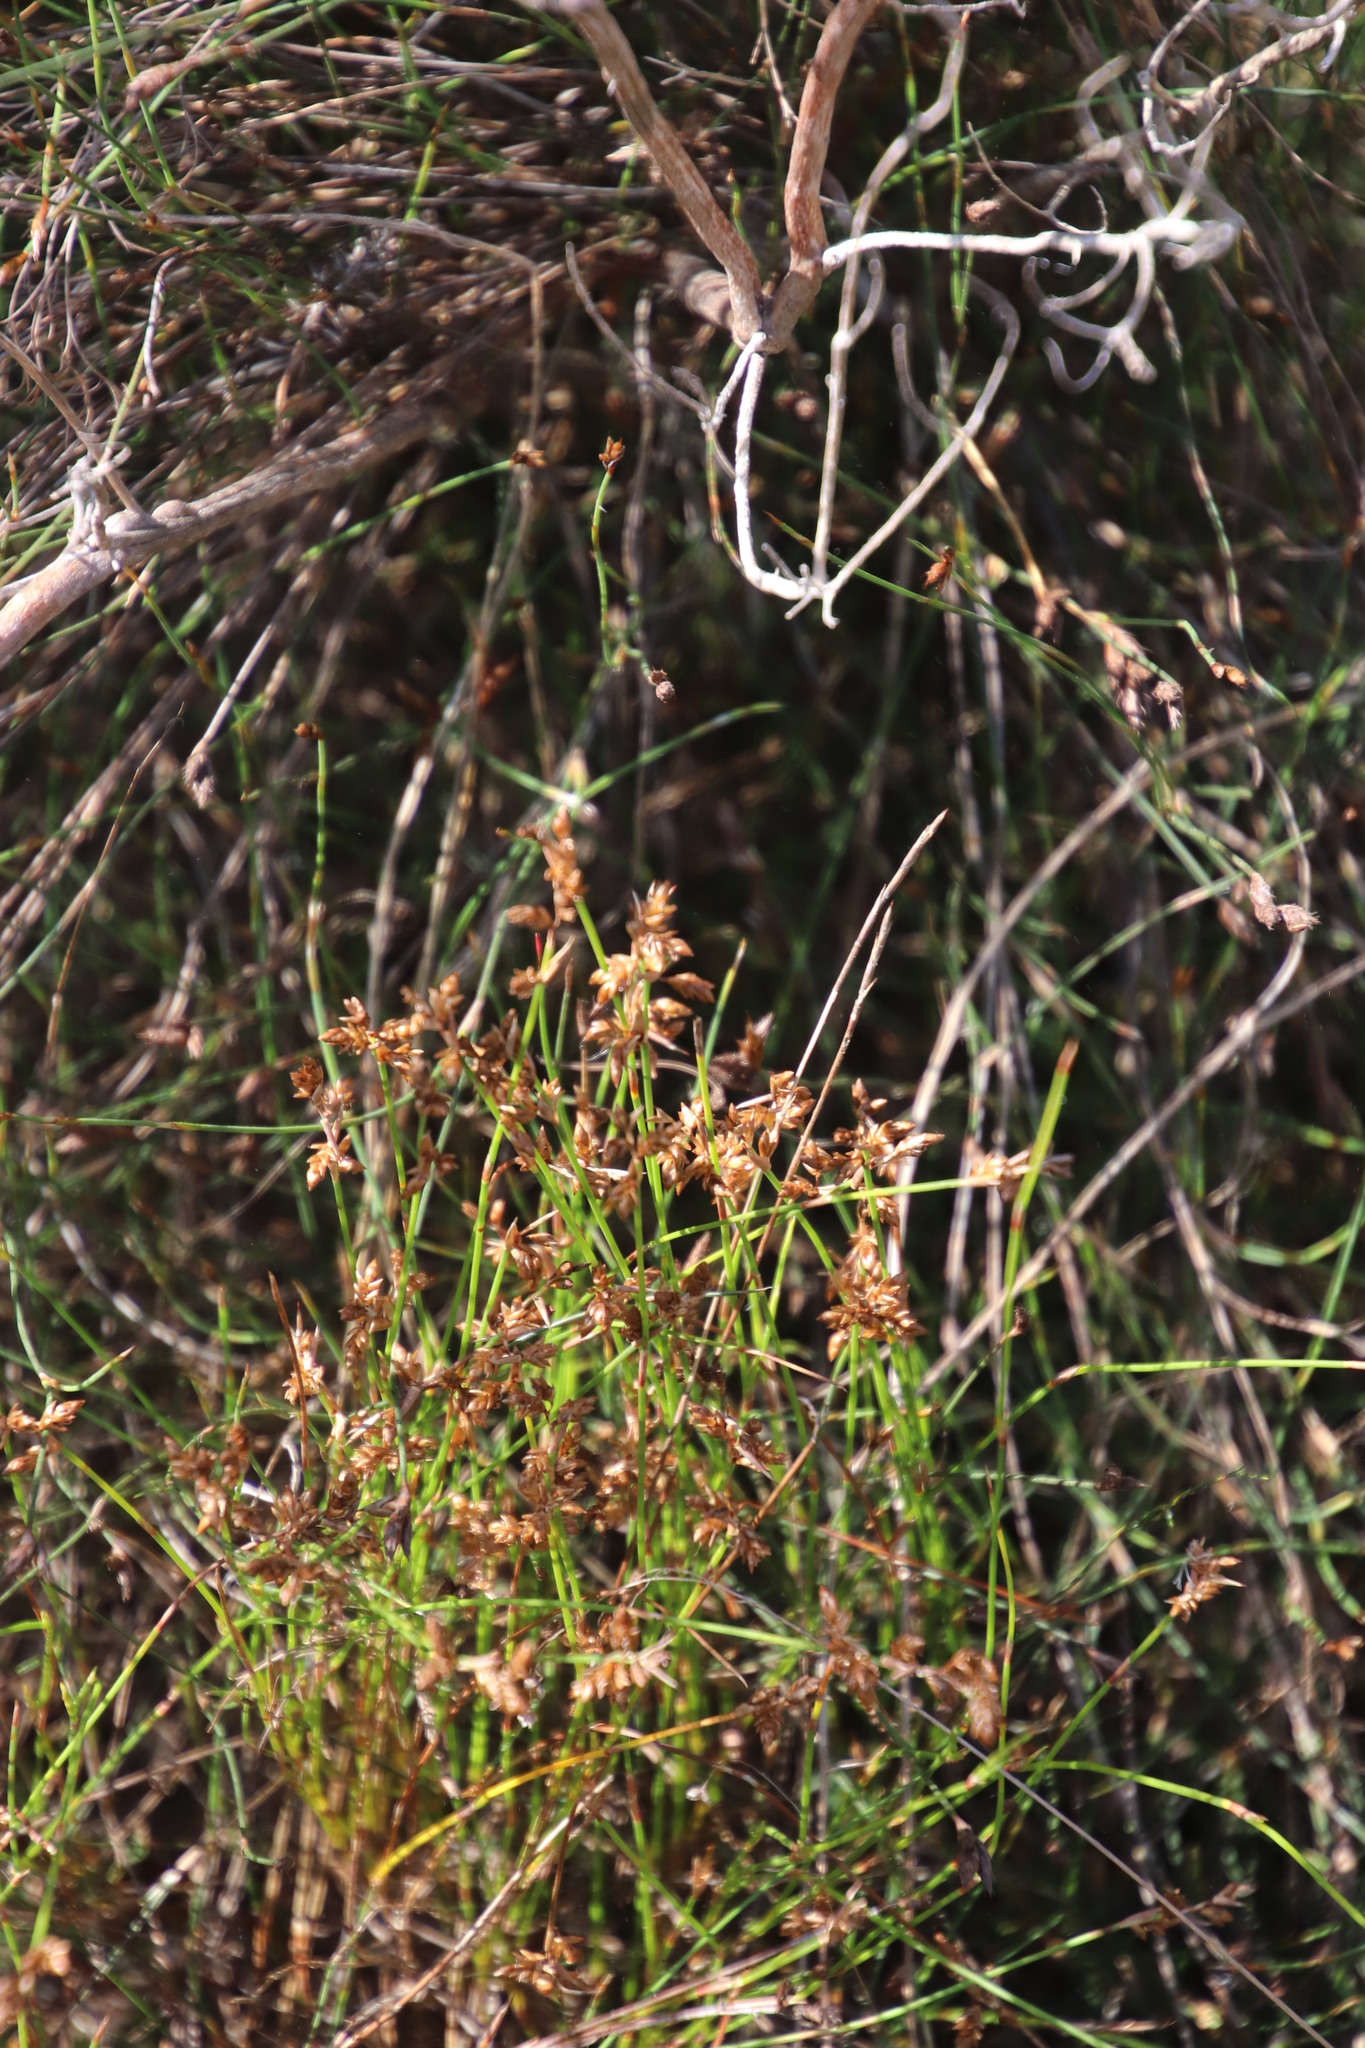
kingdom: Plantae
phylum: Tracheophyta
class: Liliopsida
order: Poales
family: Restionaceae
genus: Mastersiella
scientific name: Mastersiella digitata
